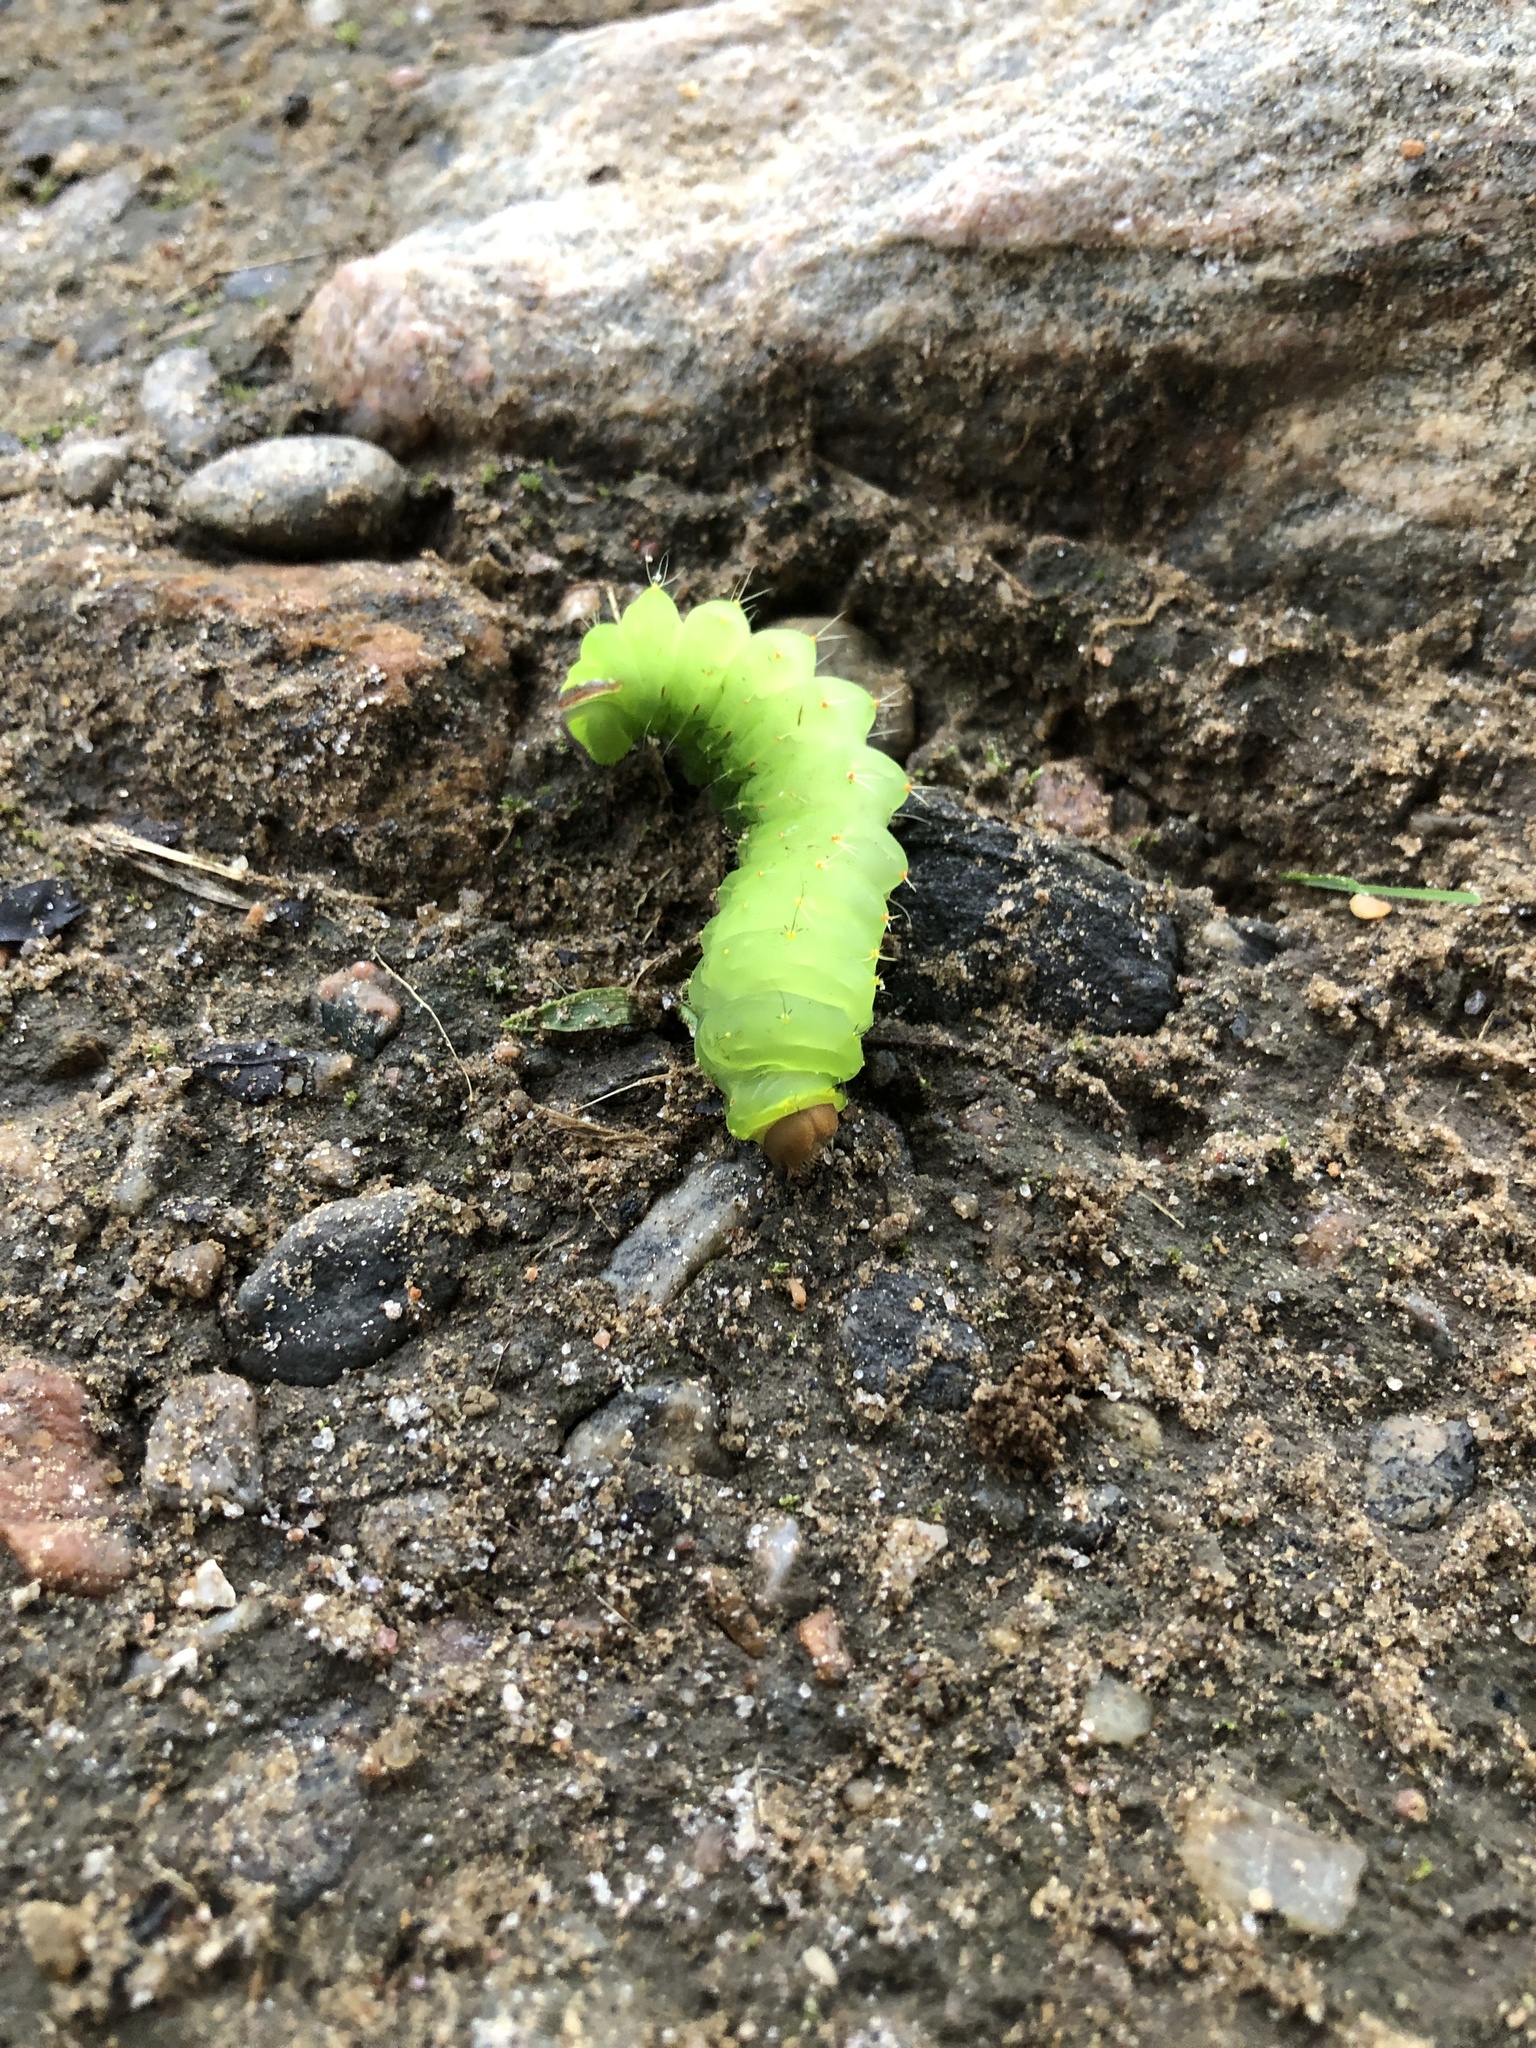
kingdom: Animalia
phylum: Arthropoda
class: Insecta
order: Lepidoptera
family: Saturniidae
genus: Antheraea
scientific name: Antheraea polyphemus
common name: Polyphemus moth
